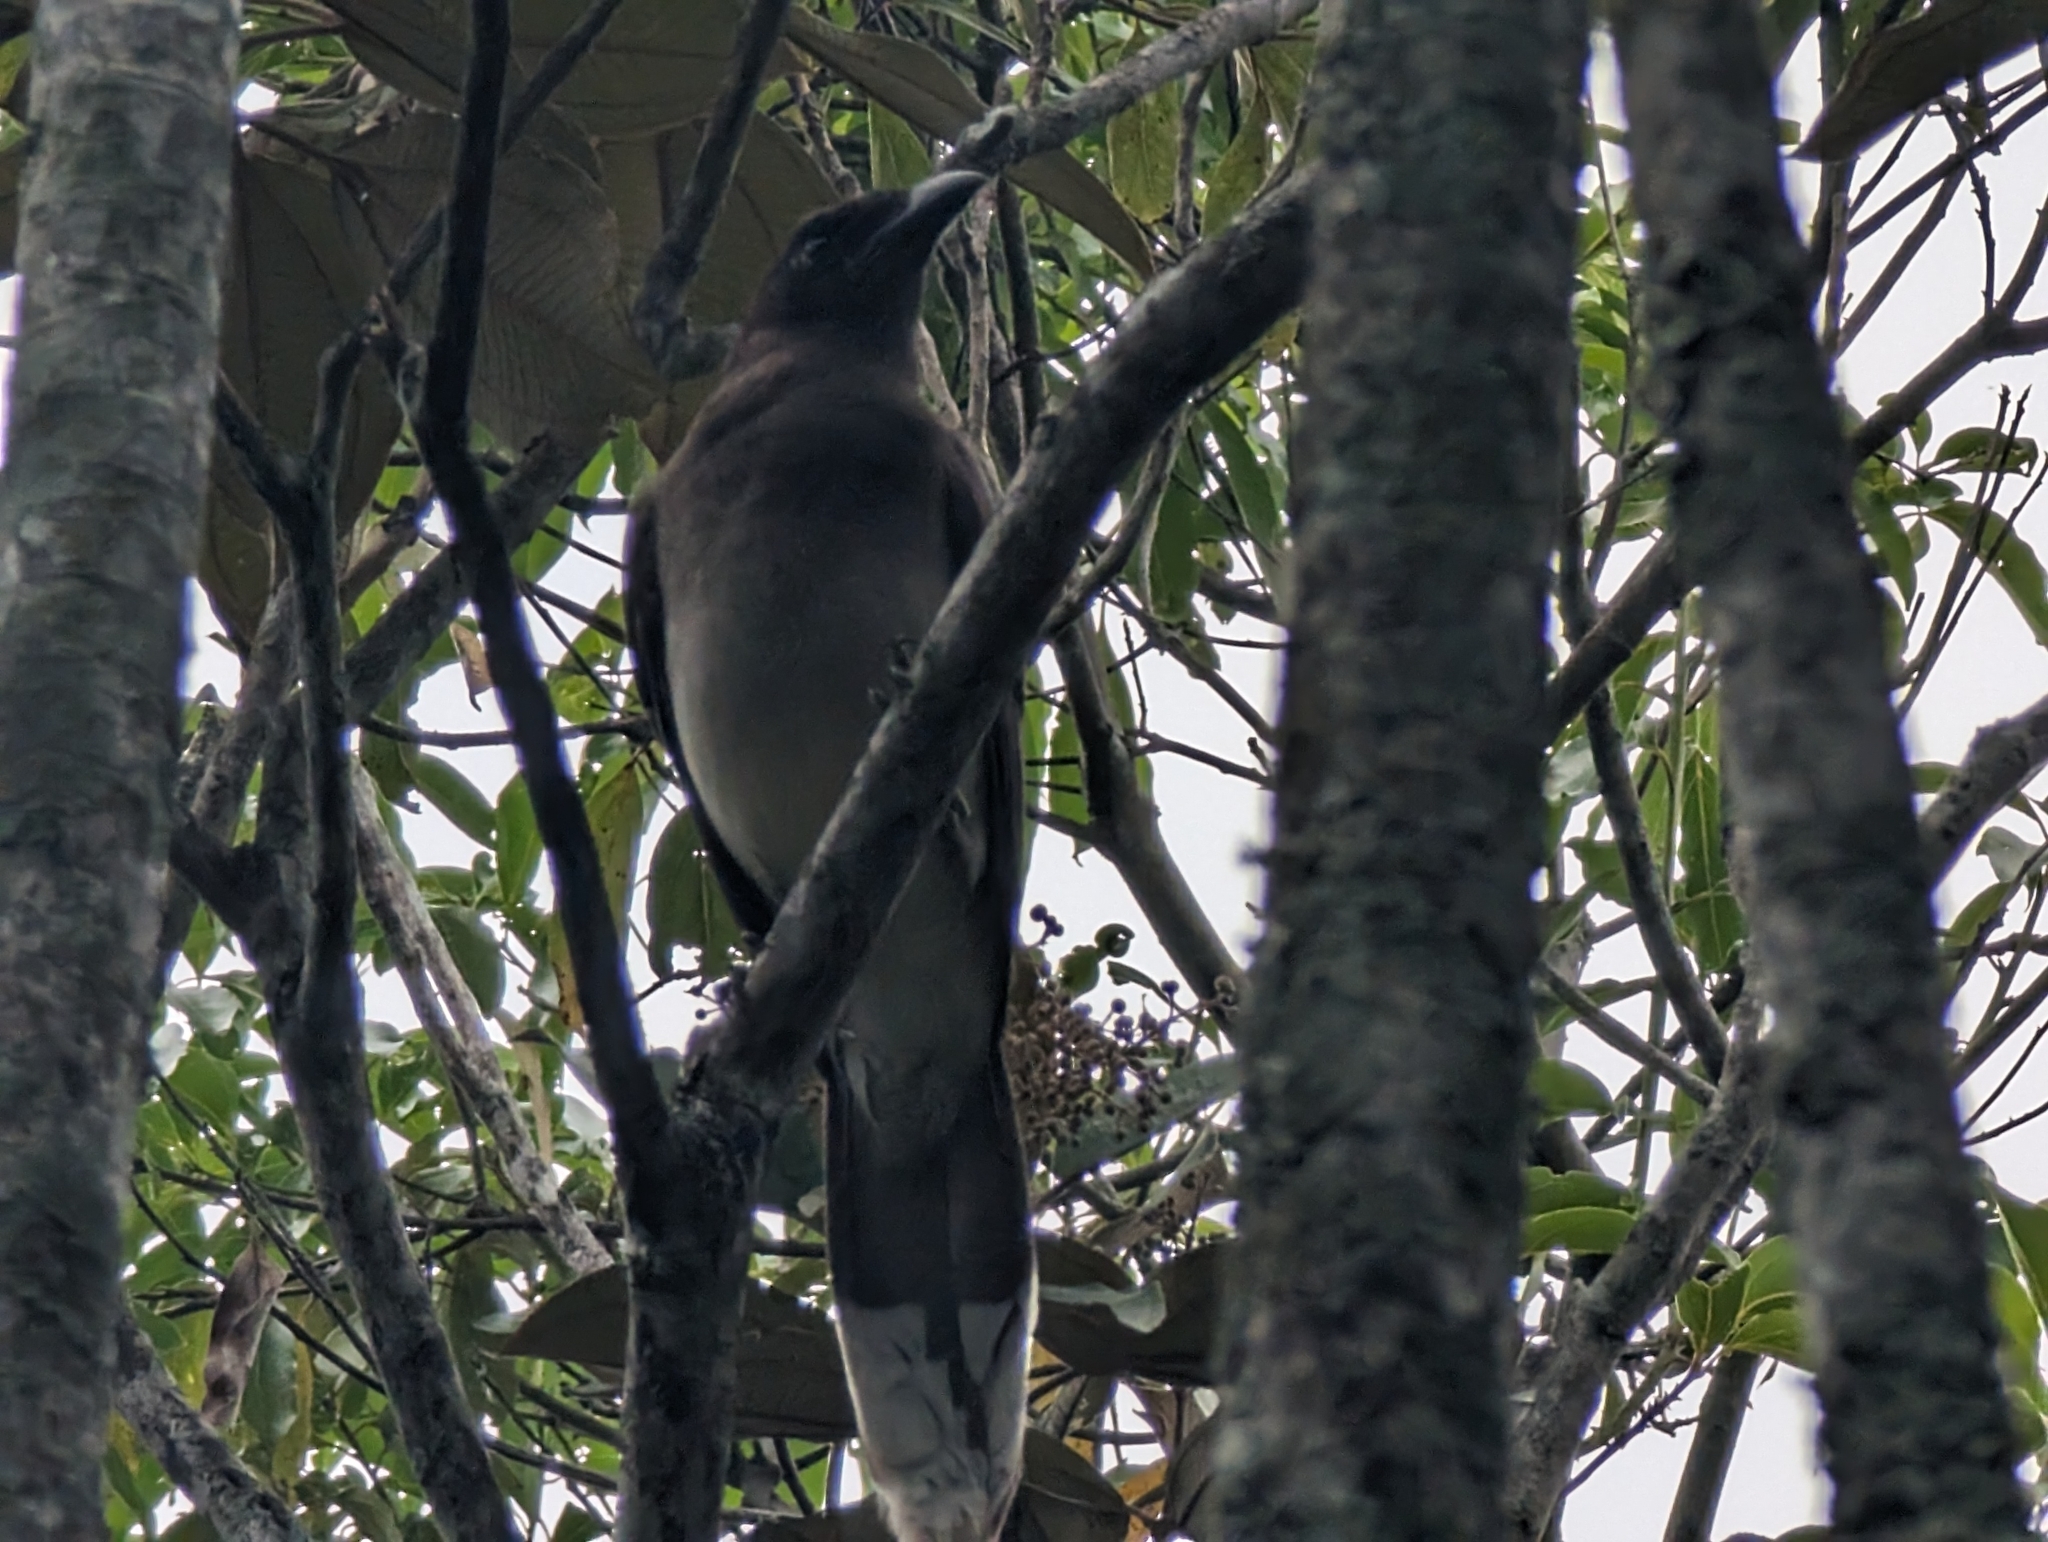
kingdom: Animalia
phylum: Chordata
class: Aves
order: Passeriformes
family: Corvidae
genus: Psilorhinus
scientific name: Psilorhinus morio
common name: Brown jay
